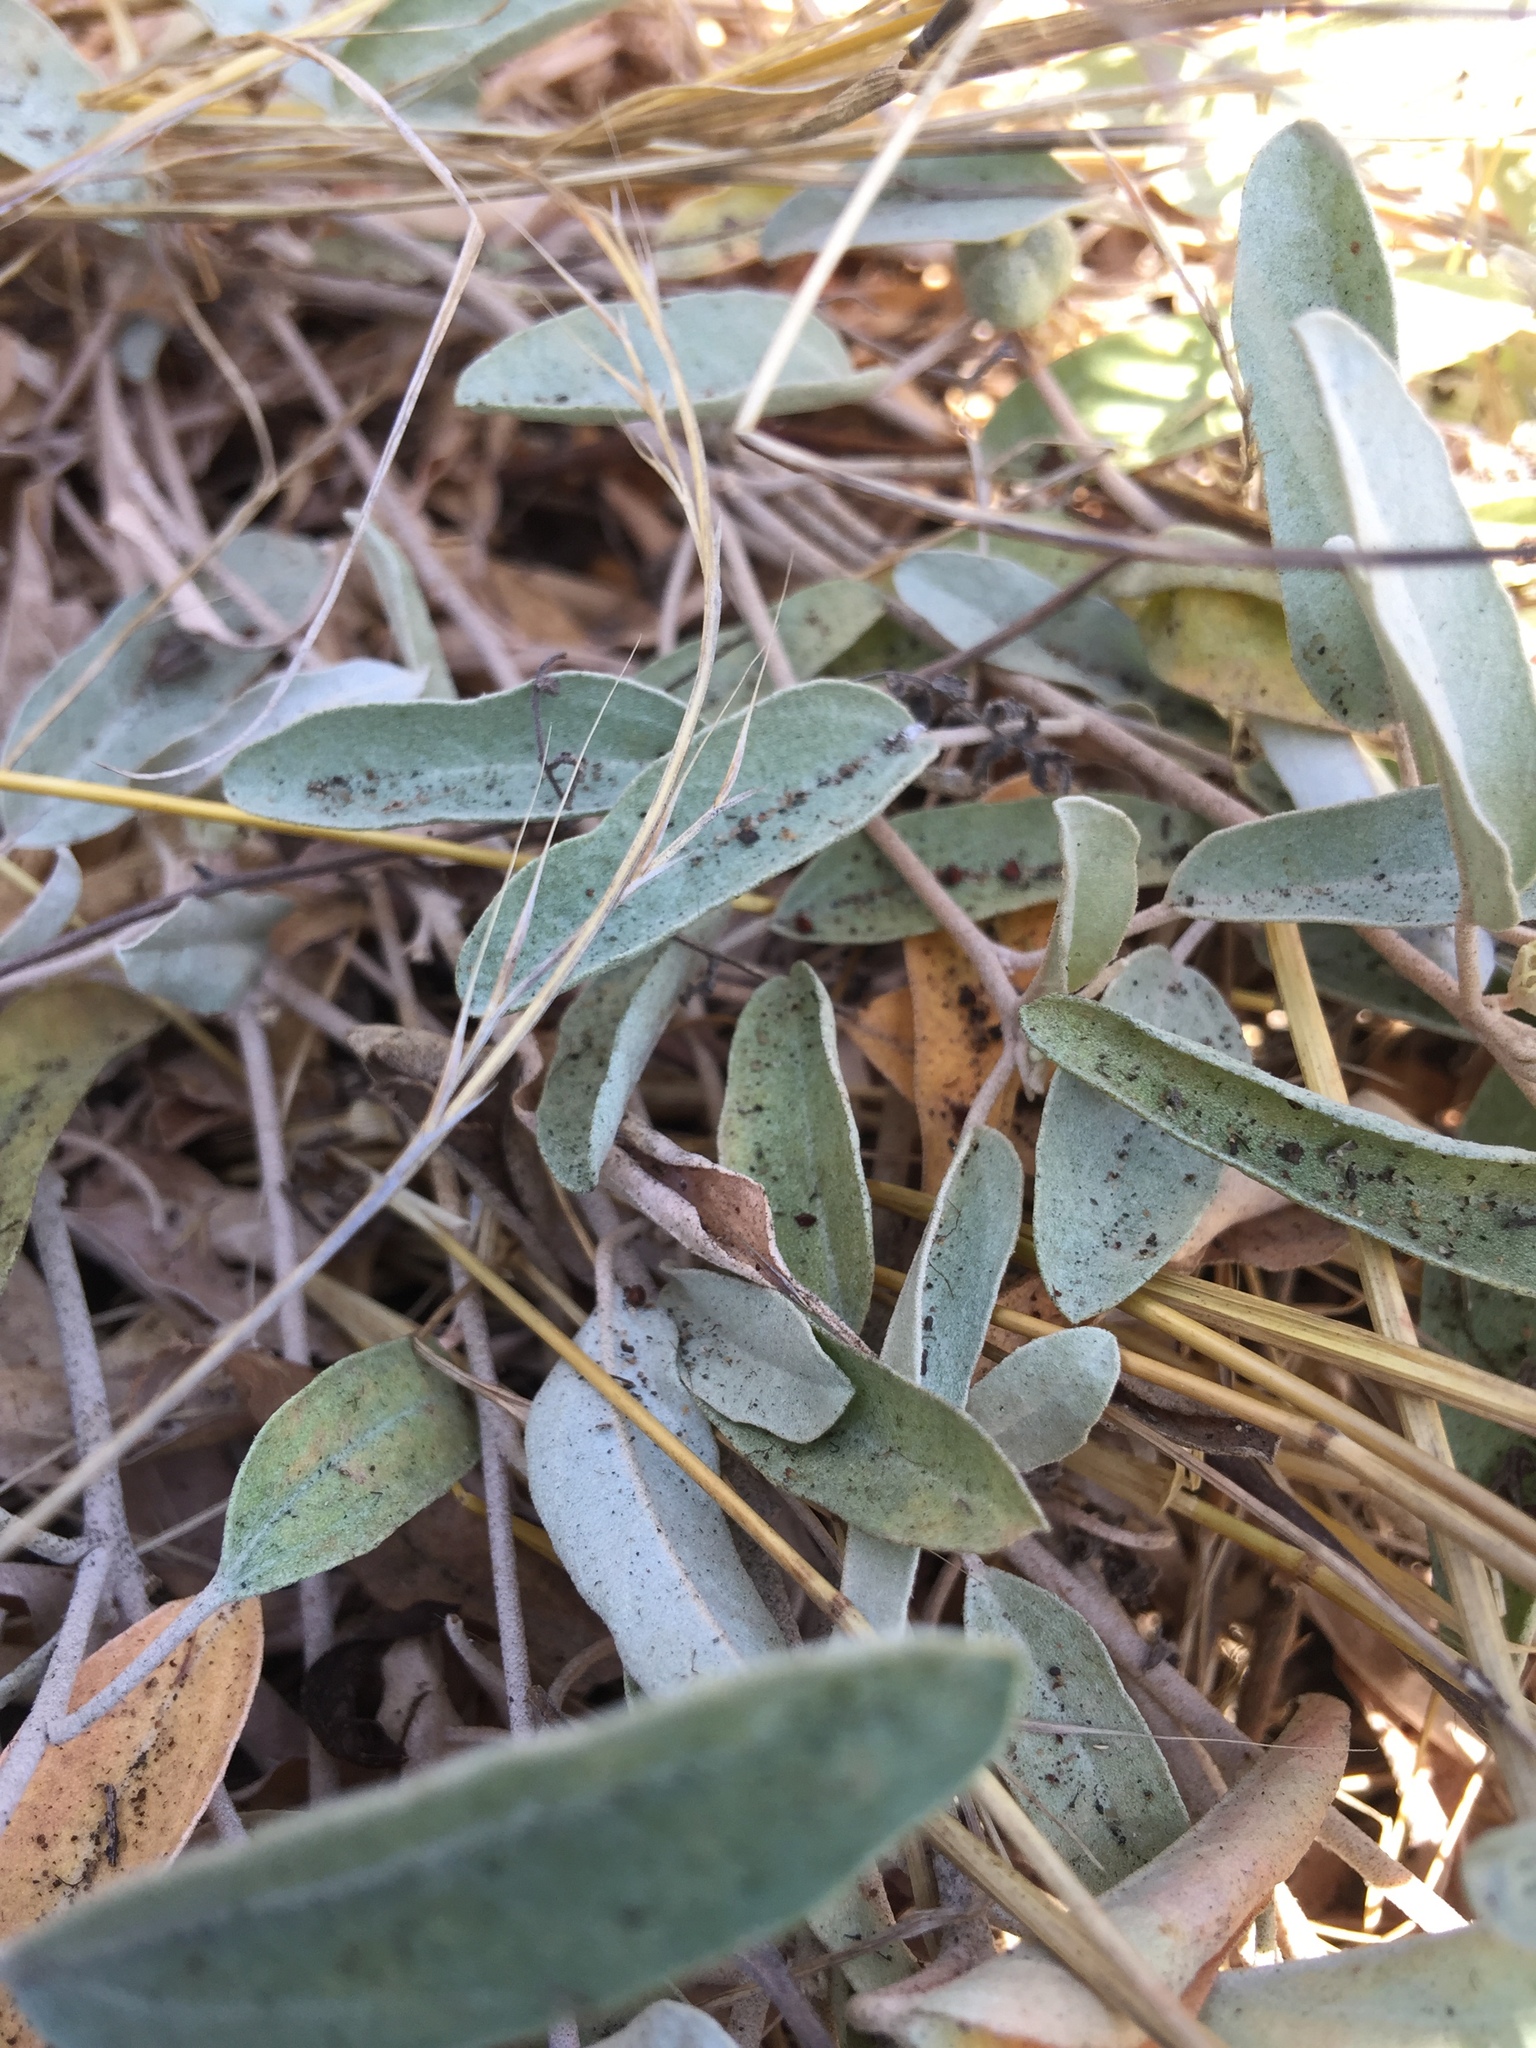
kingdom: Plantae
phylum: Tracheophyta
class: Magnoliopsida
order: Malpighiales
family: Euphorbiaceae
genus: Croton
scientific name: Croton californicus
